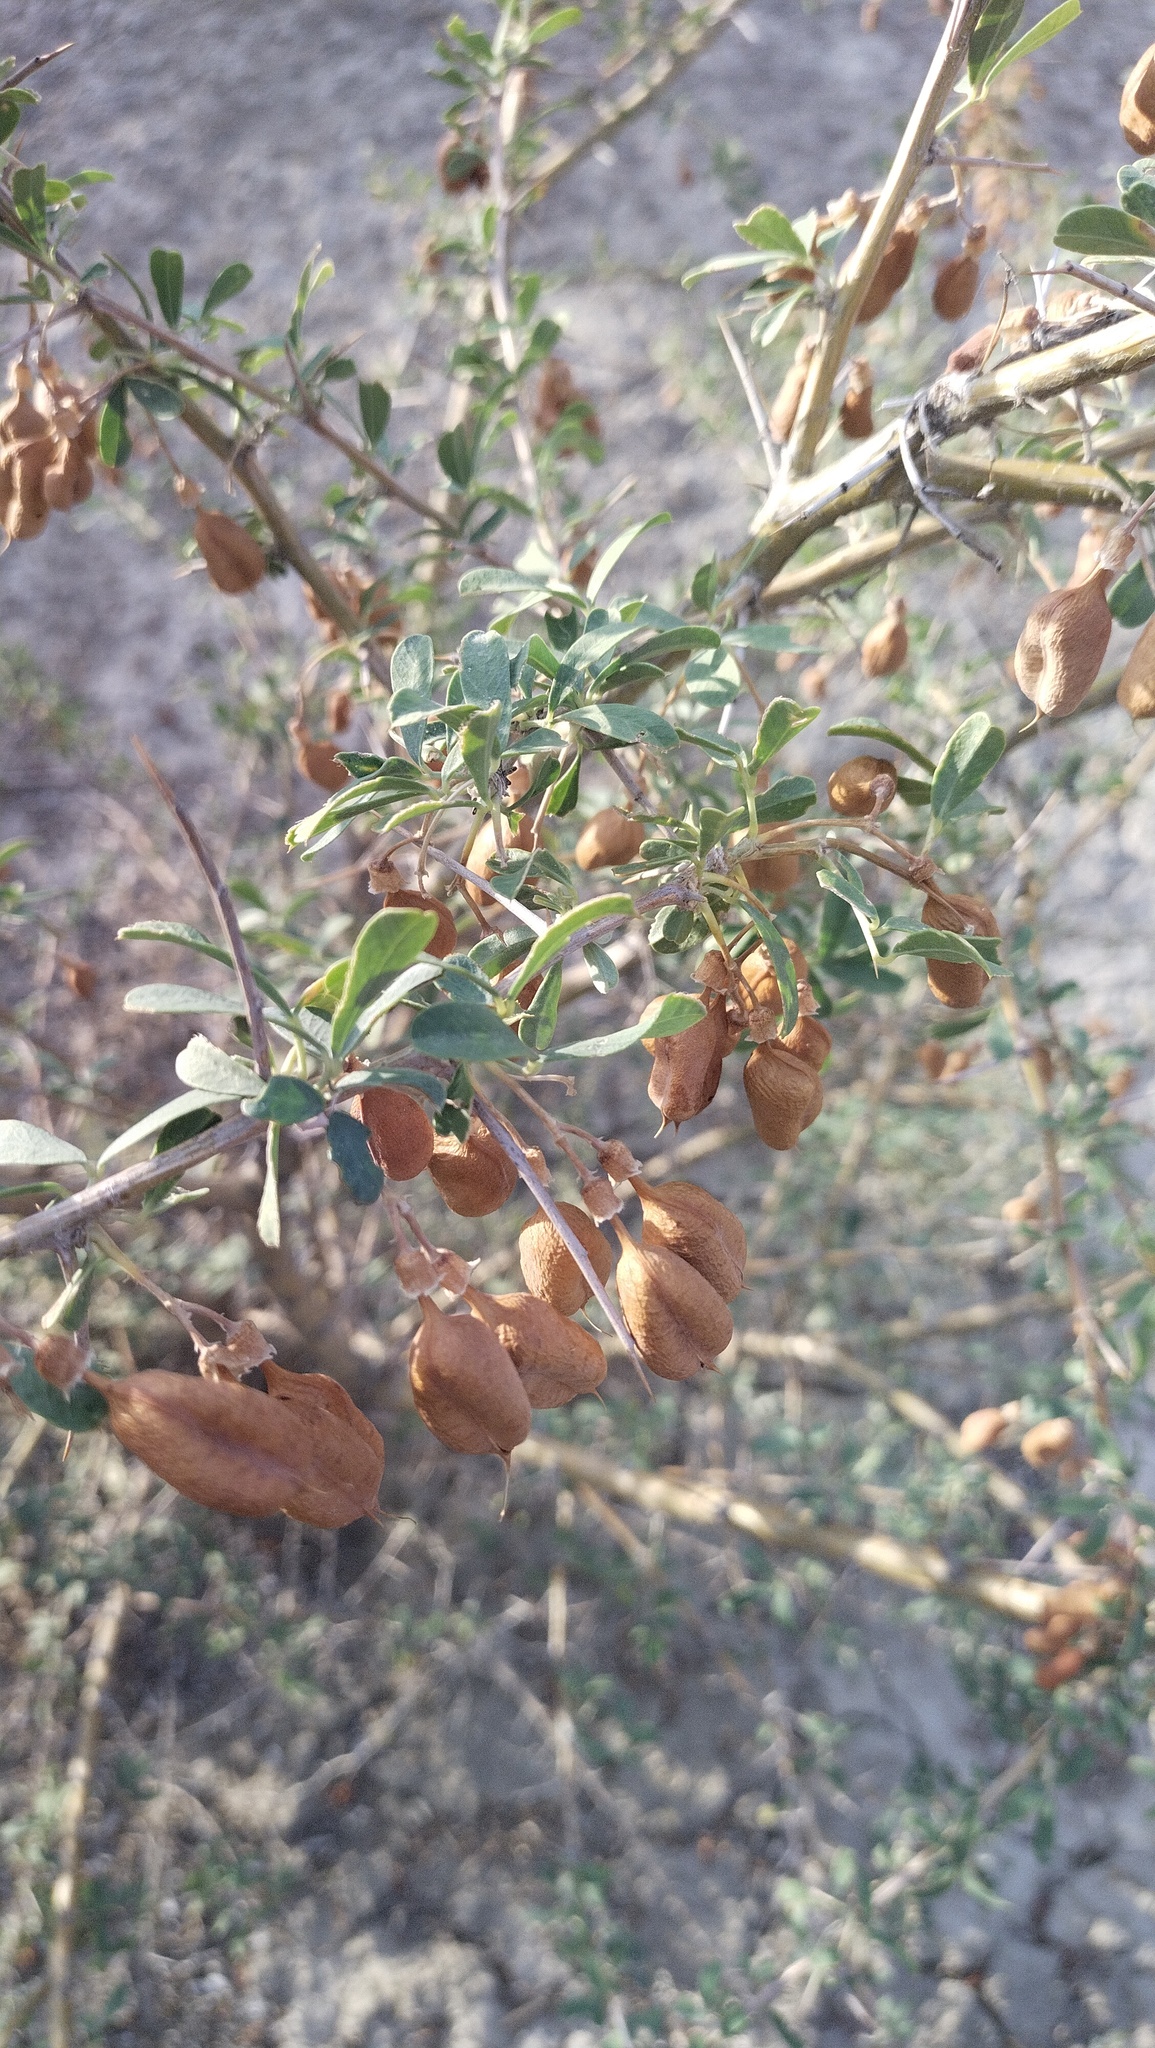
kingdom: Plantae
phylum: Tracheophyta
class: Magnoliopsida
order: Fabales
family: Fabaceae
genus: Caragana
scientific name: Caragana halodendron
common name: Siberian salt-tree
